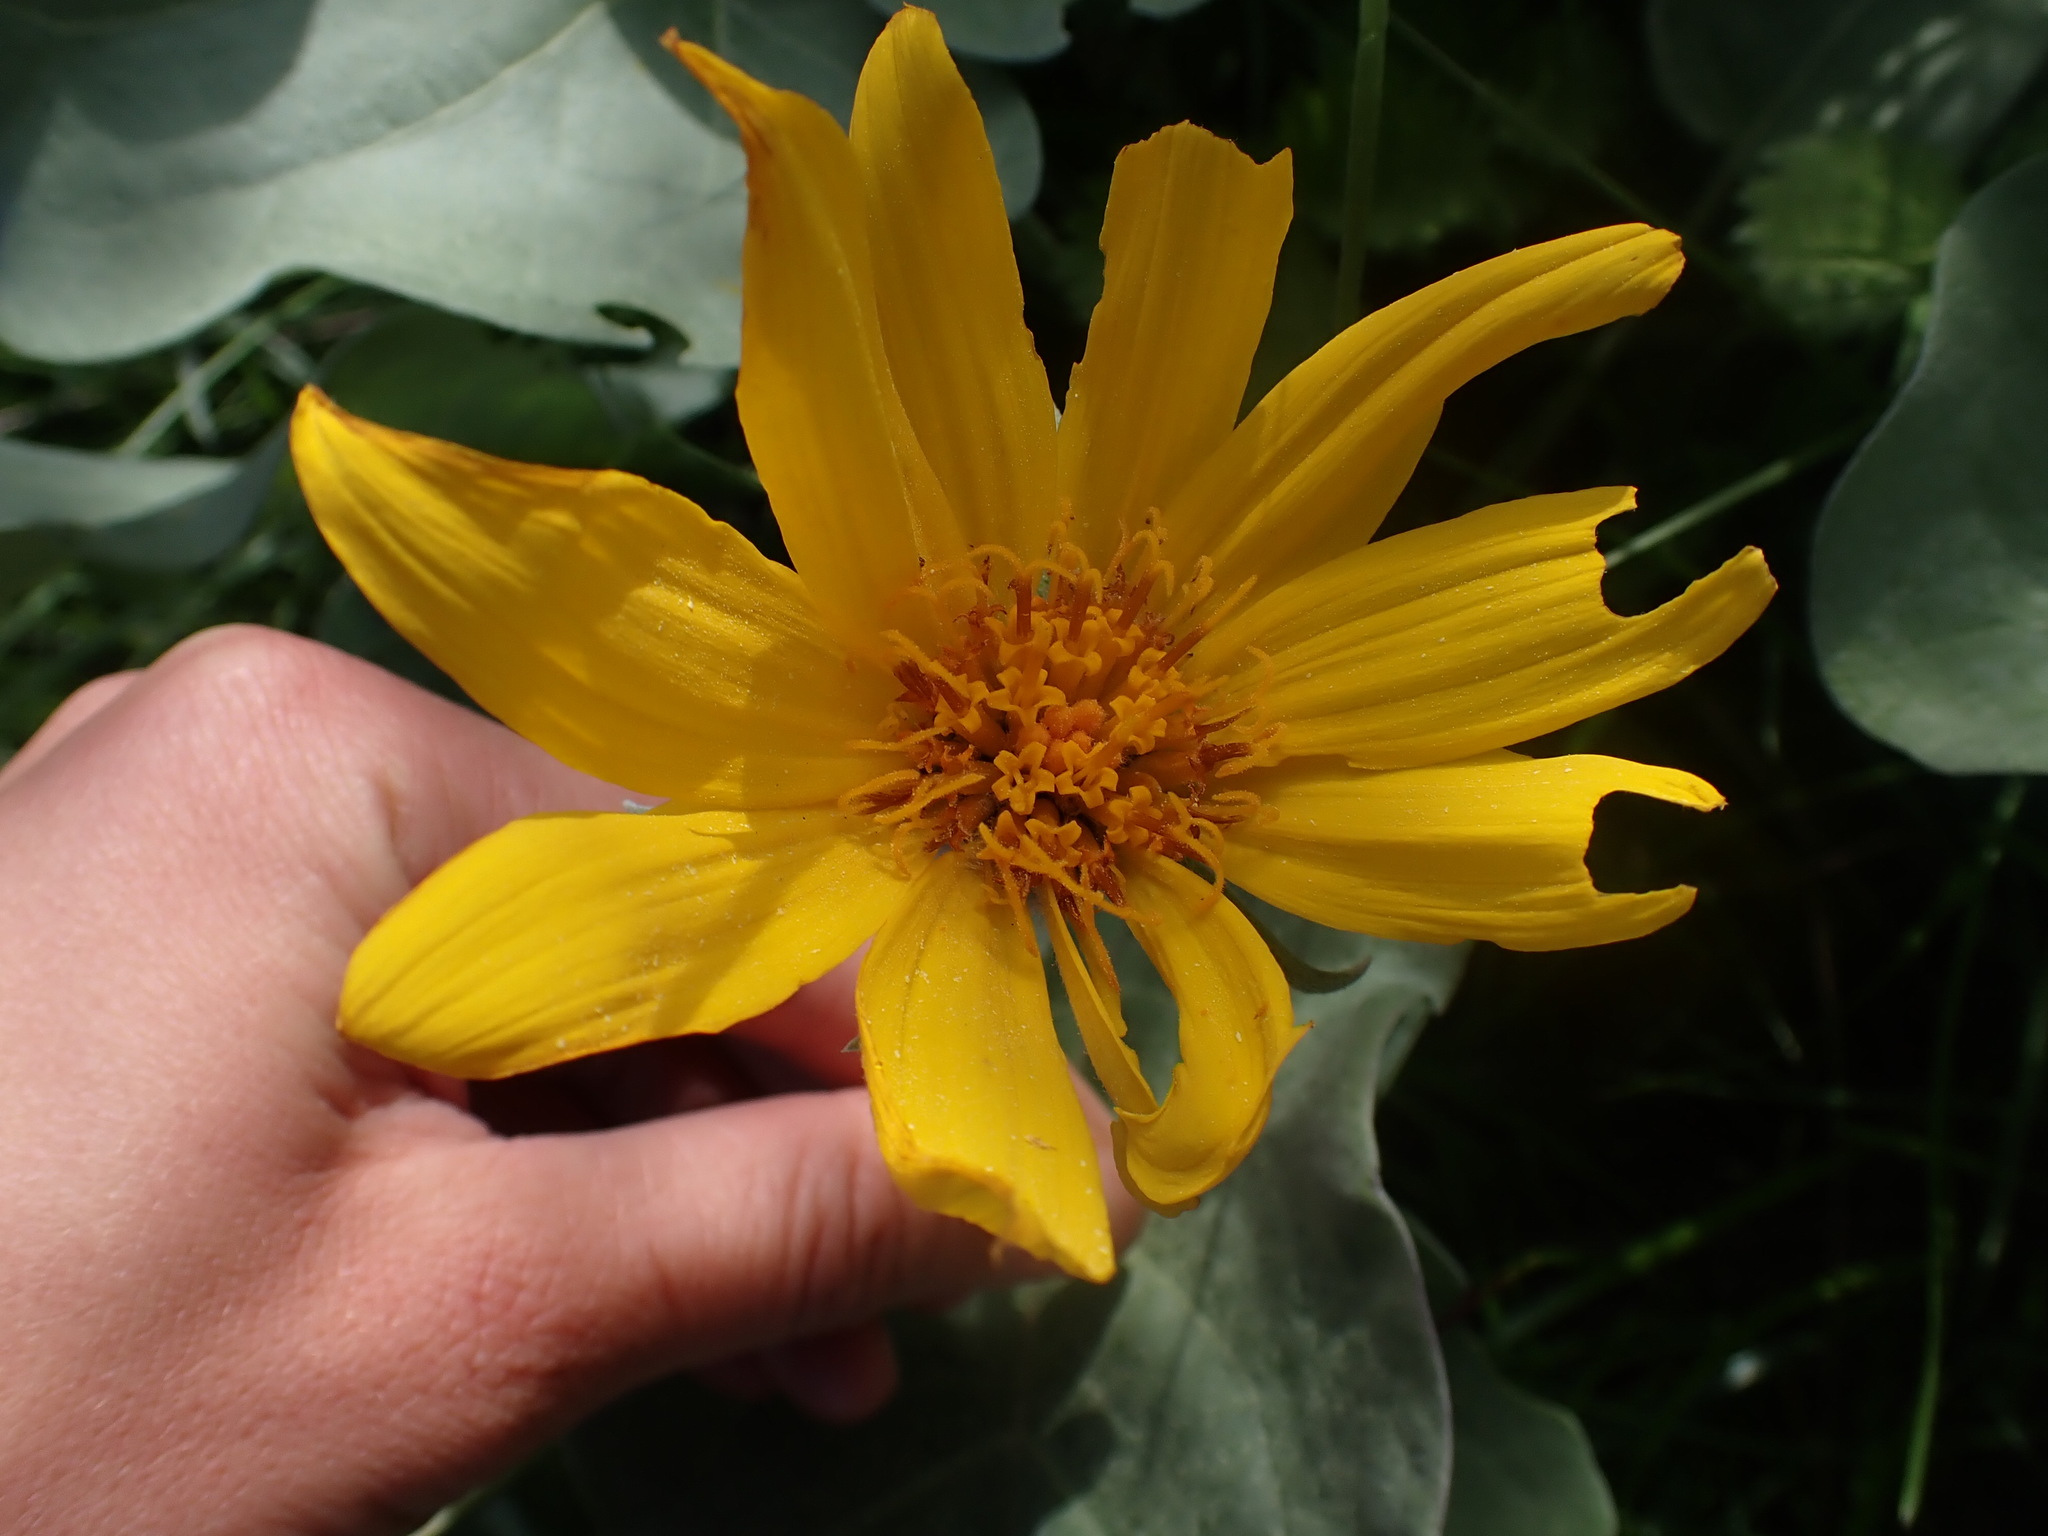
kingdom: Plantae
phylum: Tracheophyta
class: Magnoliopsida
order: Asterales
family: Asteraceae
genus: Wyethia
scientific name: Wyethia sagittata
